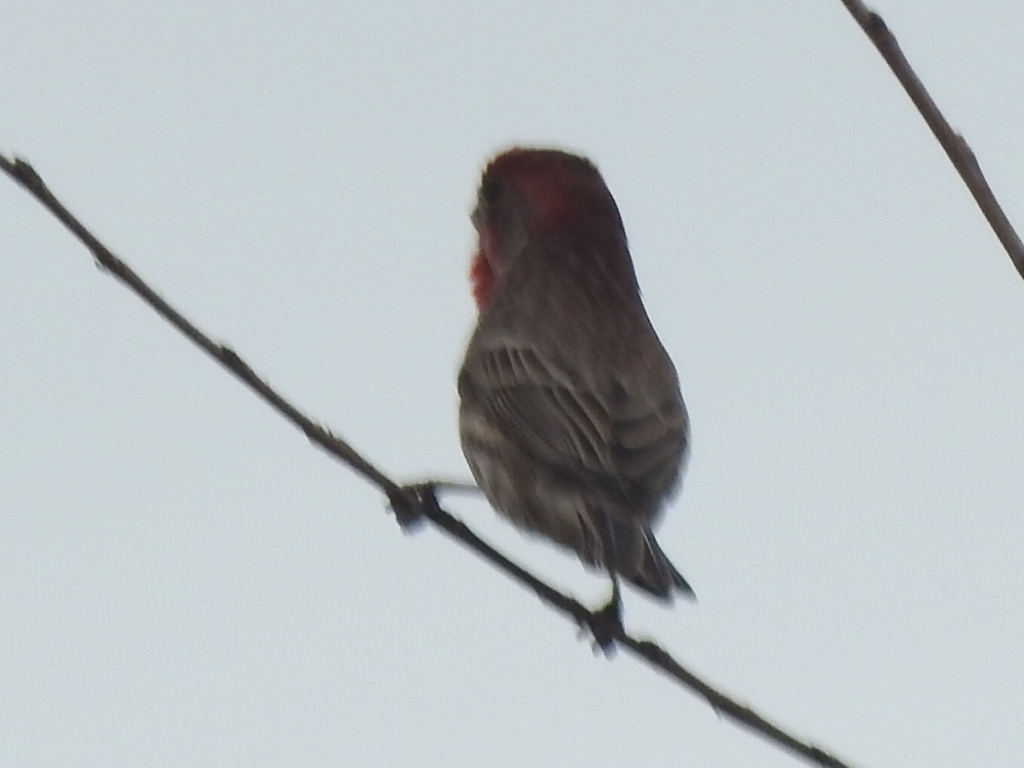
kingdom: Animalia
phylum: Chordata
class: Aves
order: Passeriformes
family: Fringillidae
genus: Haemorhous
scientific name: Haemorhous mexicanus
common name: House finch
